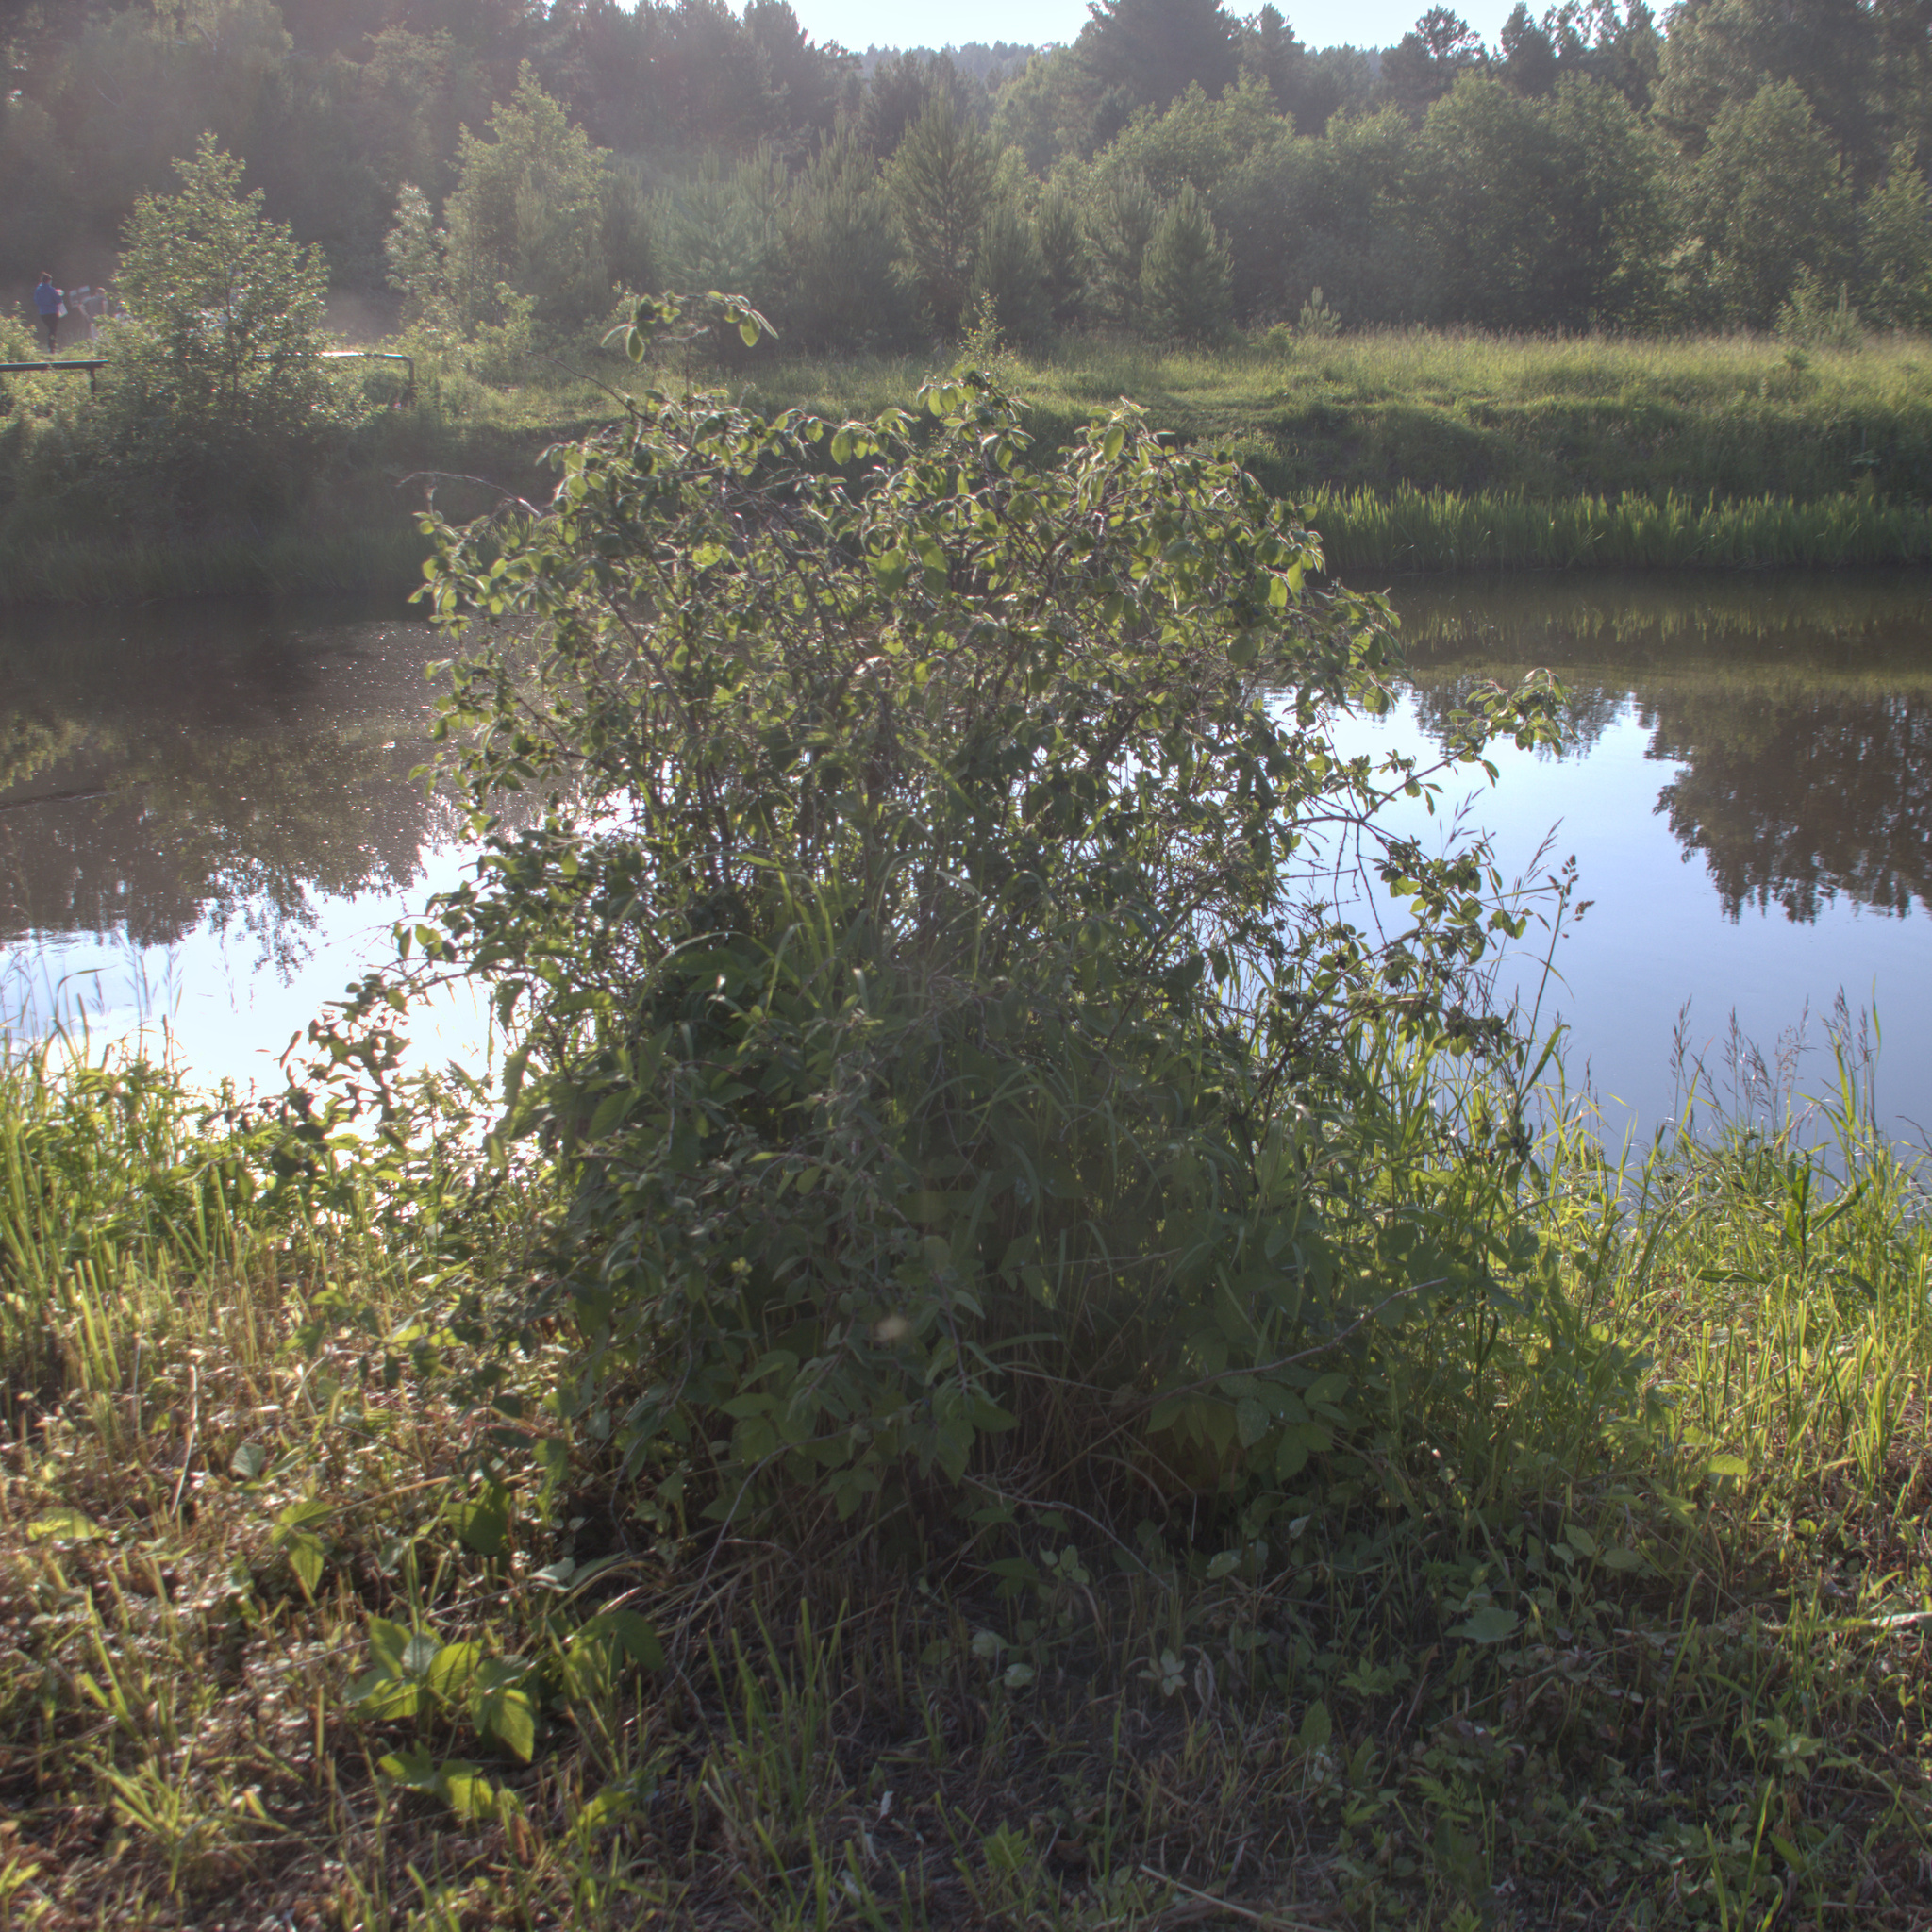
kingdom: Plantae
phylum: Tracheophyta
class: Magnoliopsida
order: Dipsacales
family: Caprifoliaceae
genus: Lonicera
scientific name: Lonicera caerulea
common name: Blue honeysuckle
